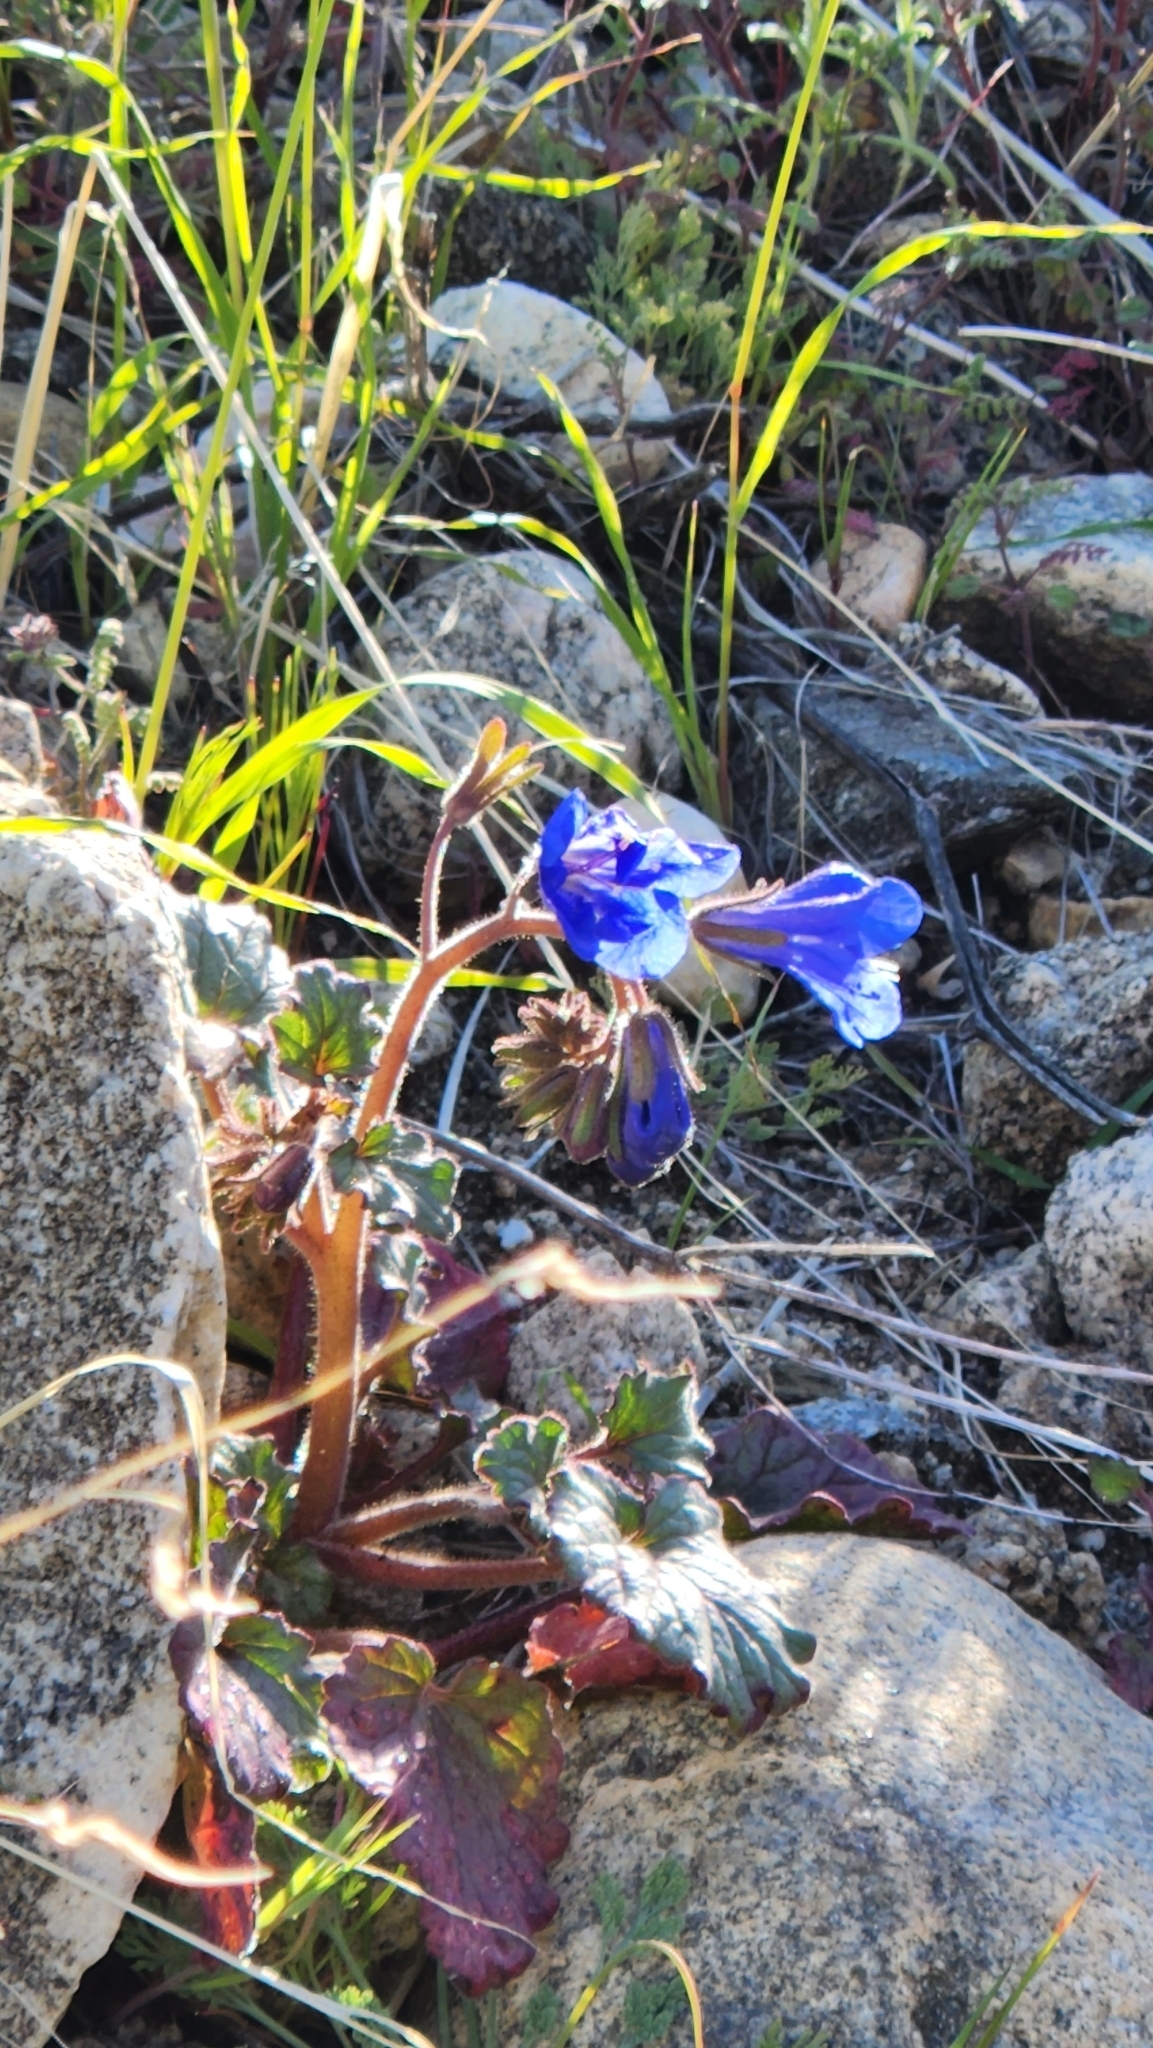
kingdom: Plantae
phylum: Tracheophyta
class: Magnoliopsida
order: Boraginales
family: Hydrophyllaceae
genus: Phacelia
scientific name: Phacelia campanularia
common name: California bluebell
